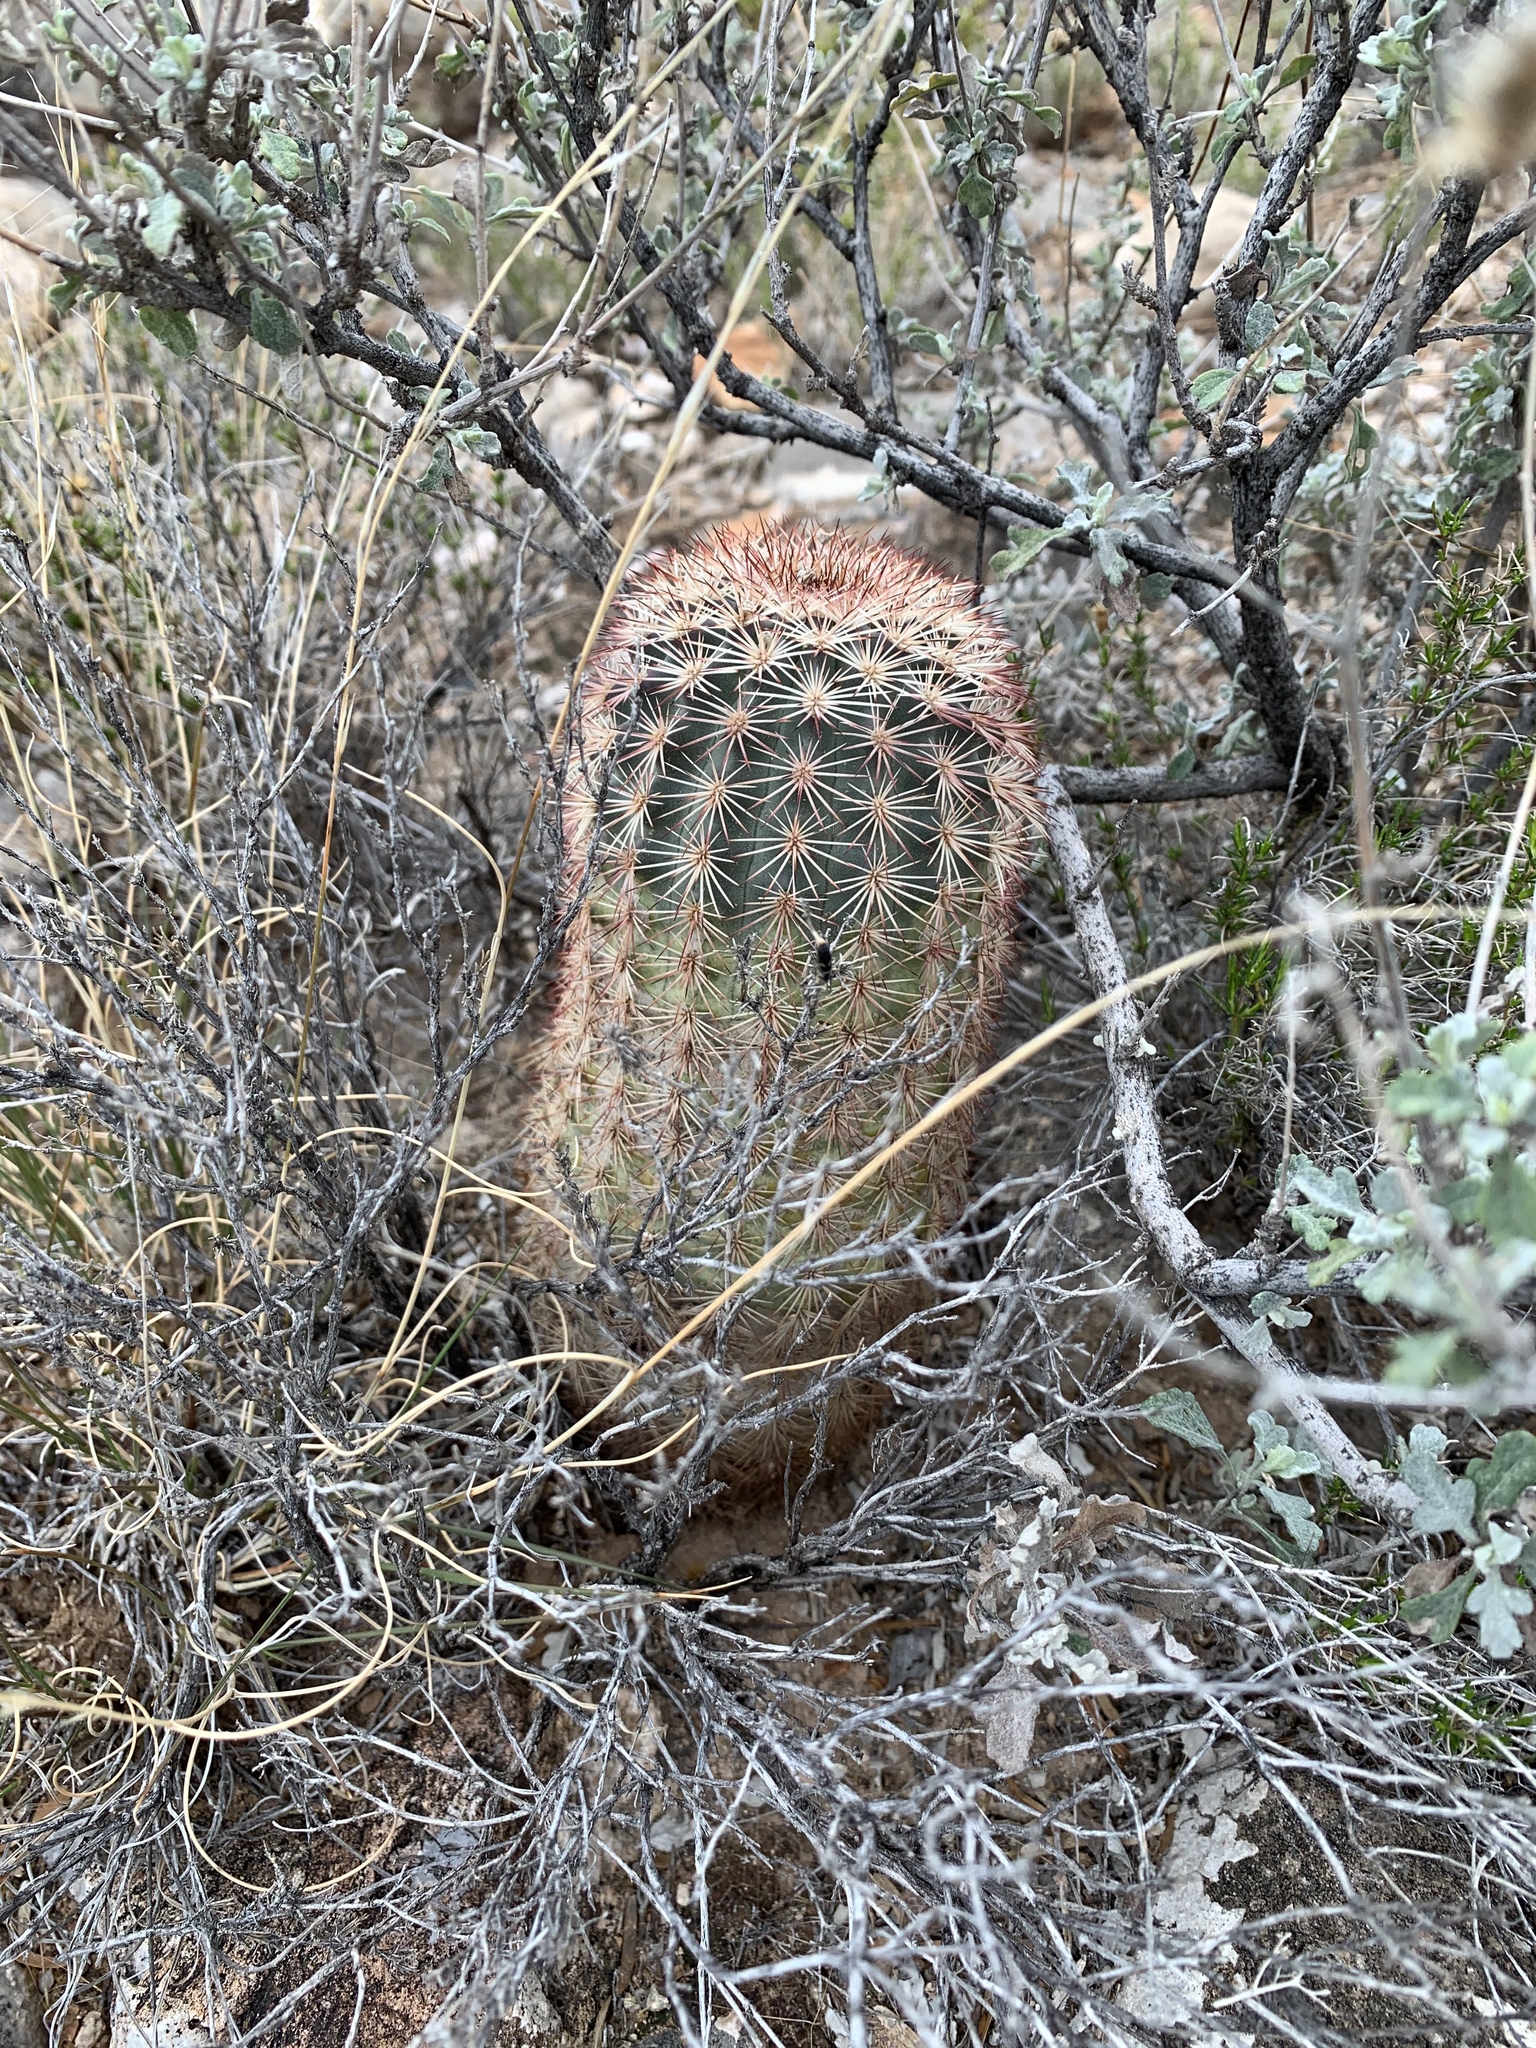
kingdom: Plantae
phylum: Tracheophyta
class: Magnoliopsida
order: Caryophyllales
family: Cactaceae
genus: Echinocereus
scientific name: Echinocereus dasyacanthus
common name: Spiny hedgehog cactus
